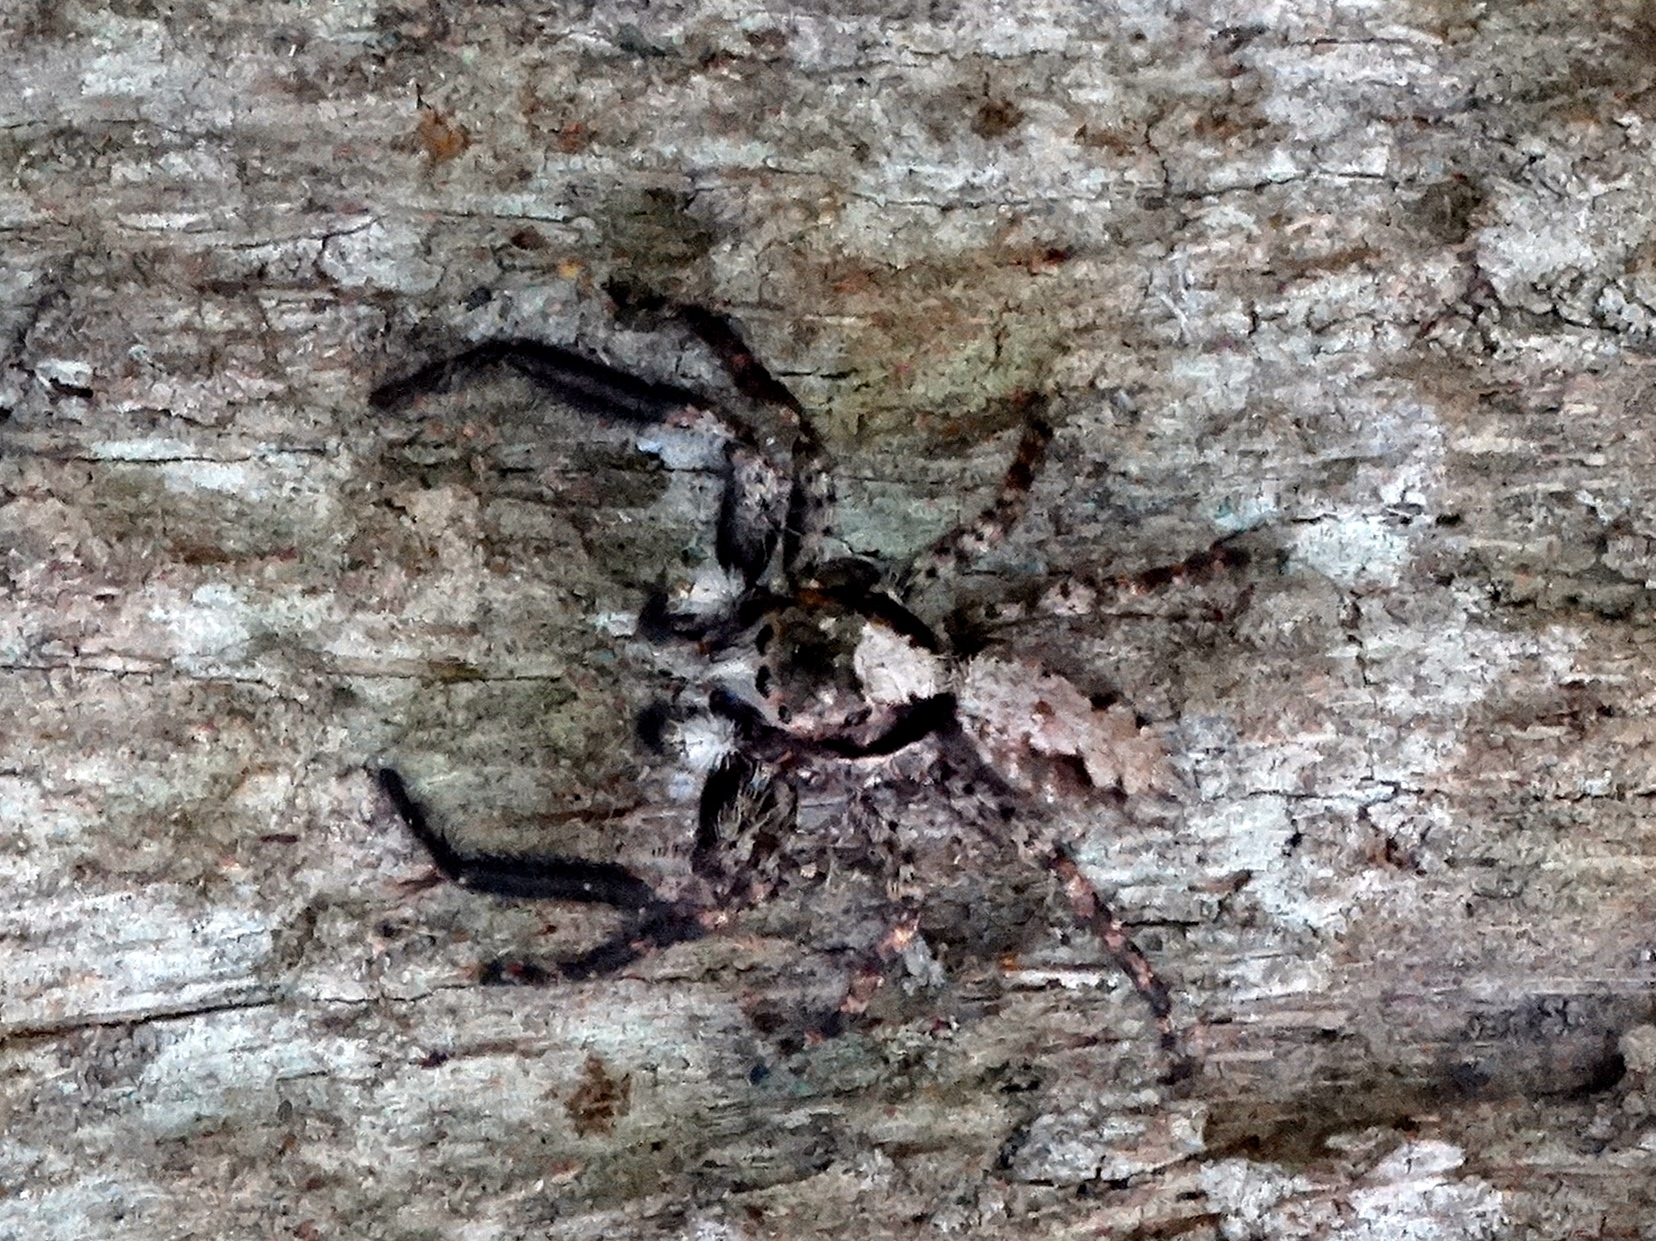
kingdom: Animalia
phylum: Arthropoda
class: Arachnida
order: Araneae
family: Salticidae
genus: Balmaceda
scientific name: Balmaceda
